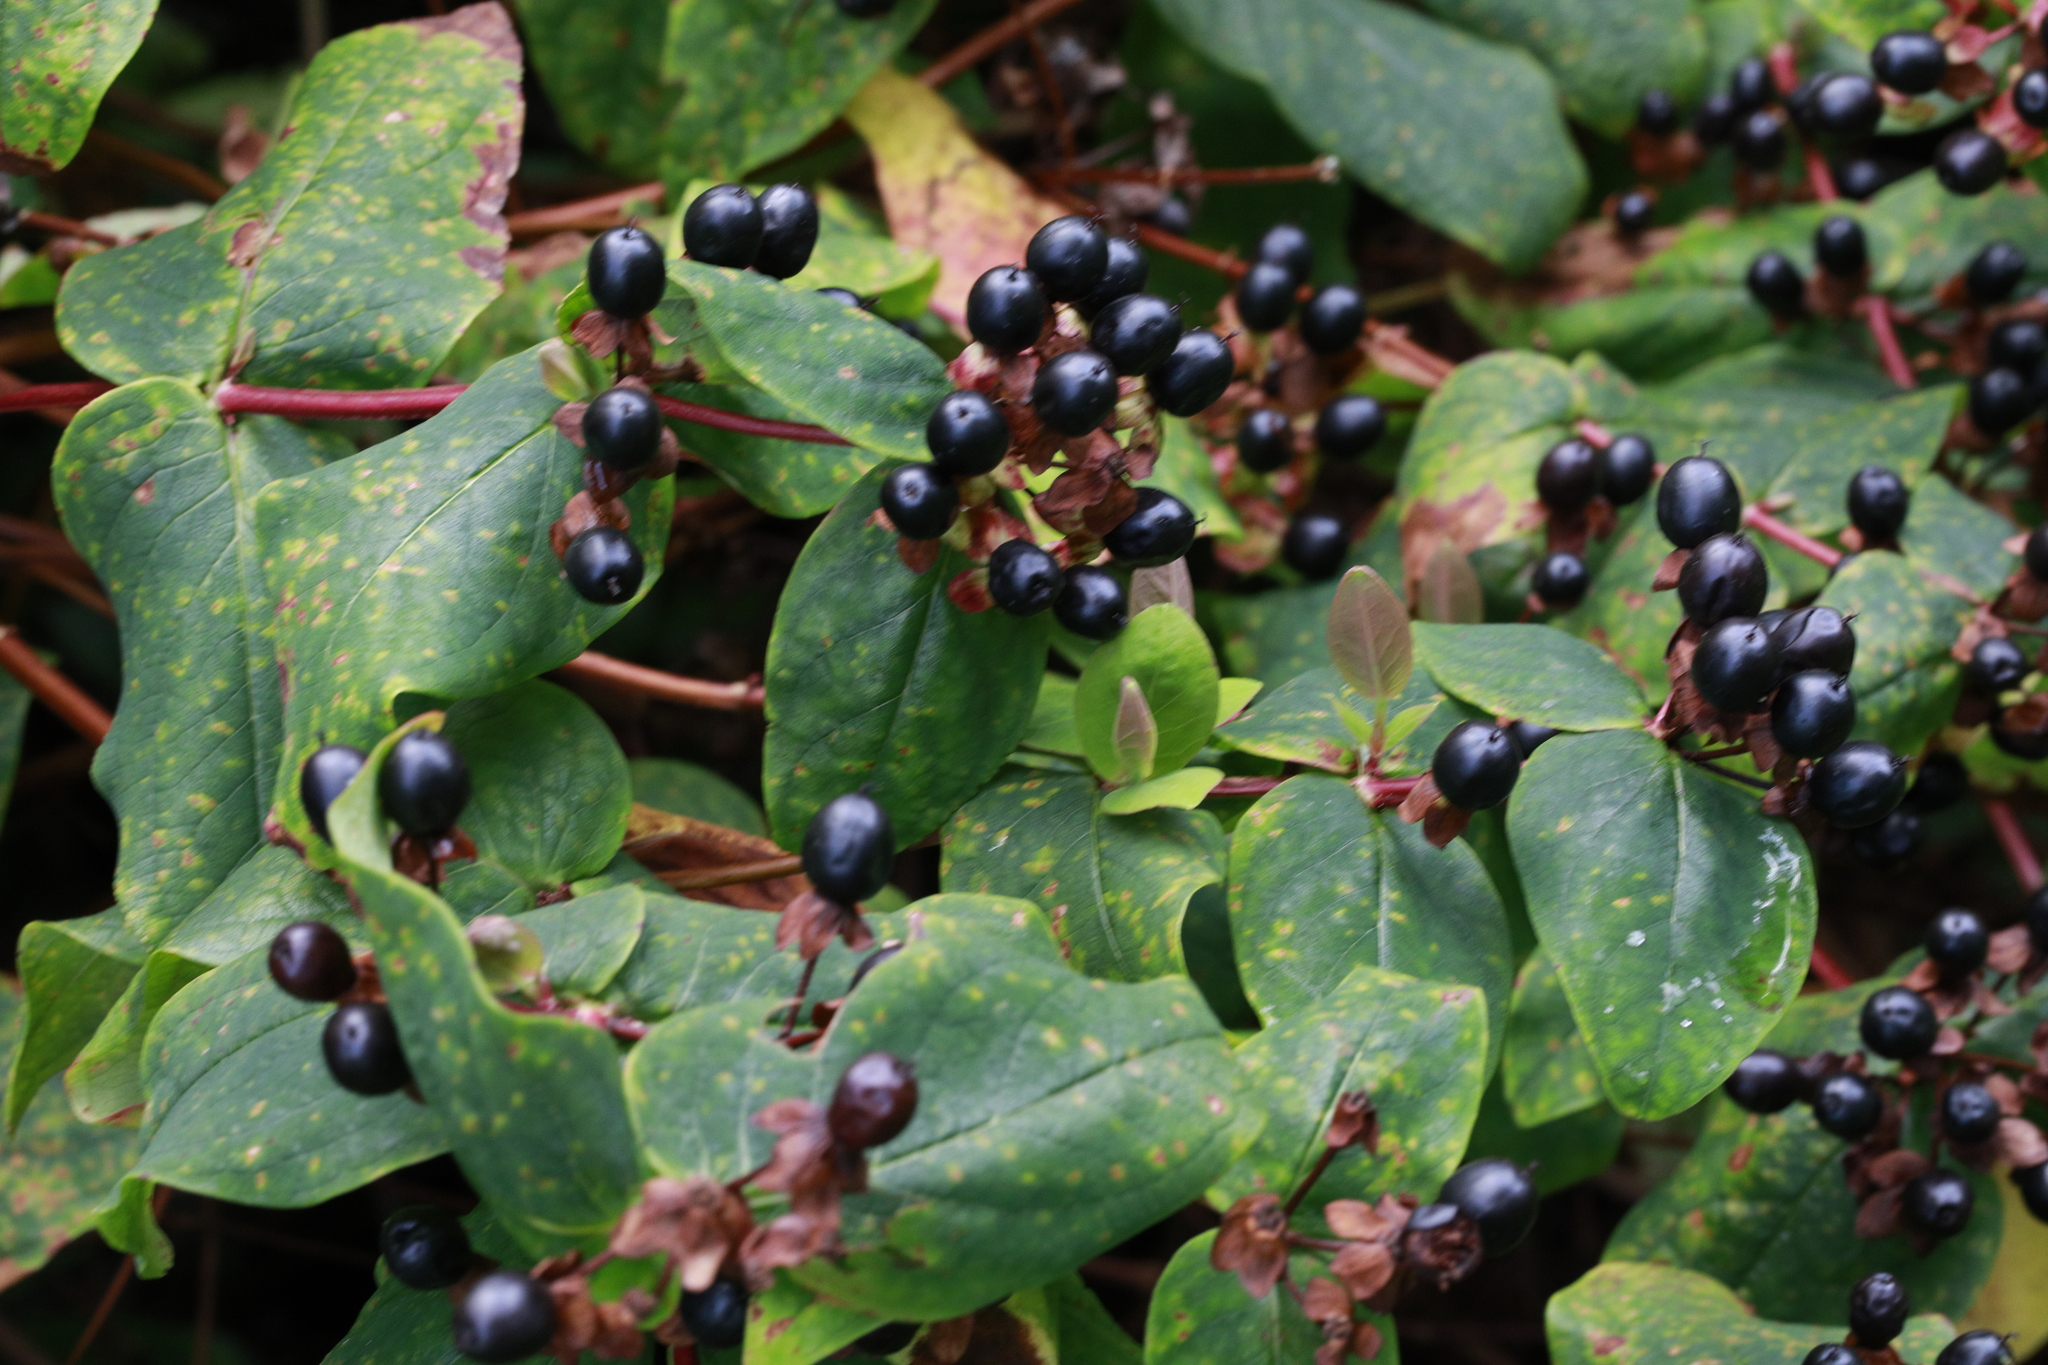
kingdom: Plantae
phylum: Tracheophyta
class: Magnoliopsida
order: Malpighiales
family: Hypericaceae
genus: Hypericum
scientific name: Hypericum androsaemum
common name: Sweet-amber
